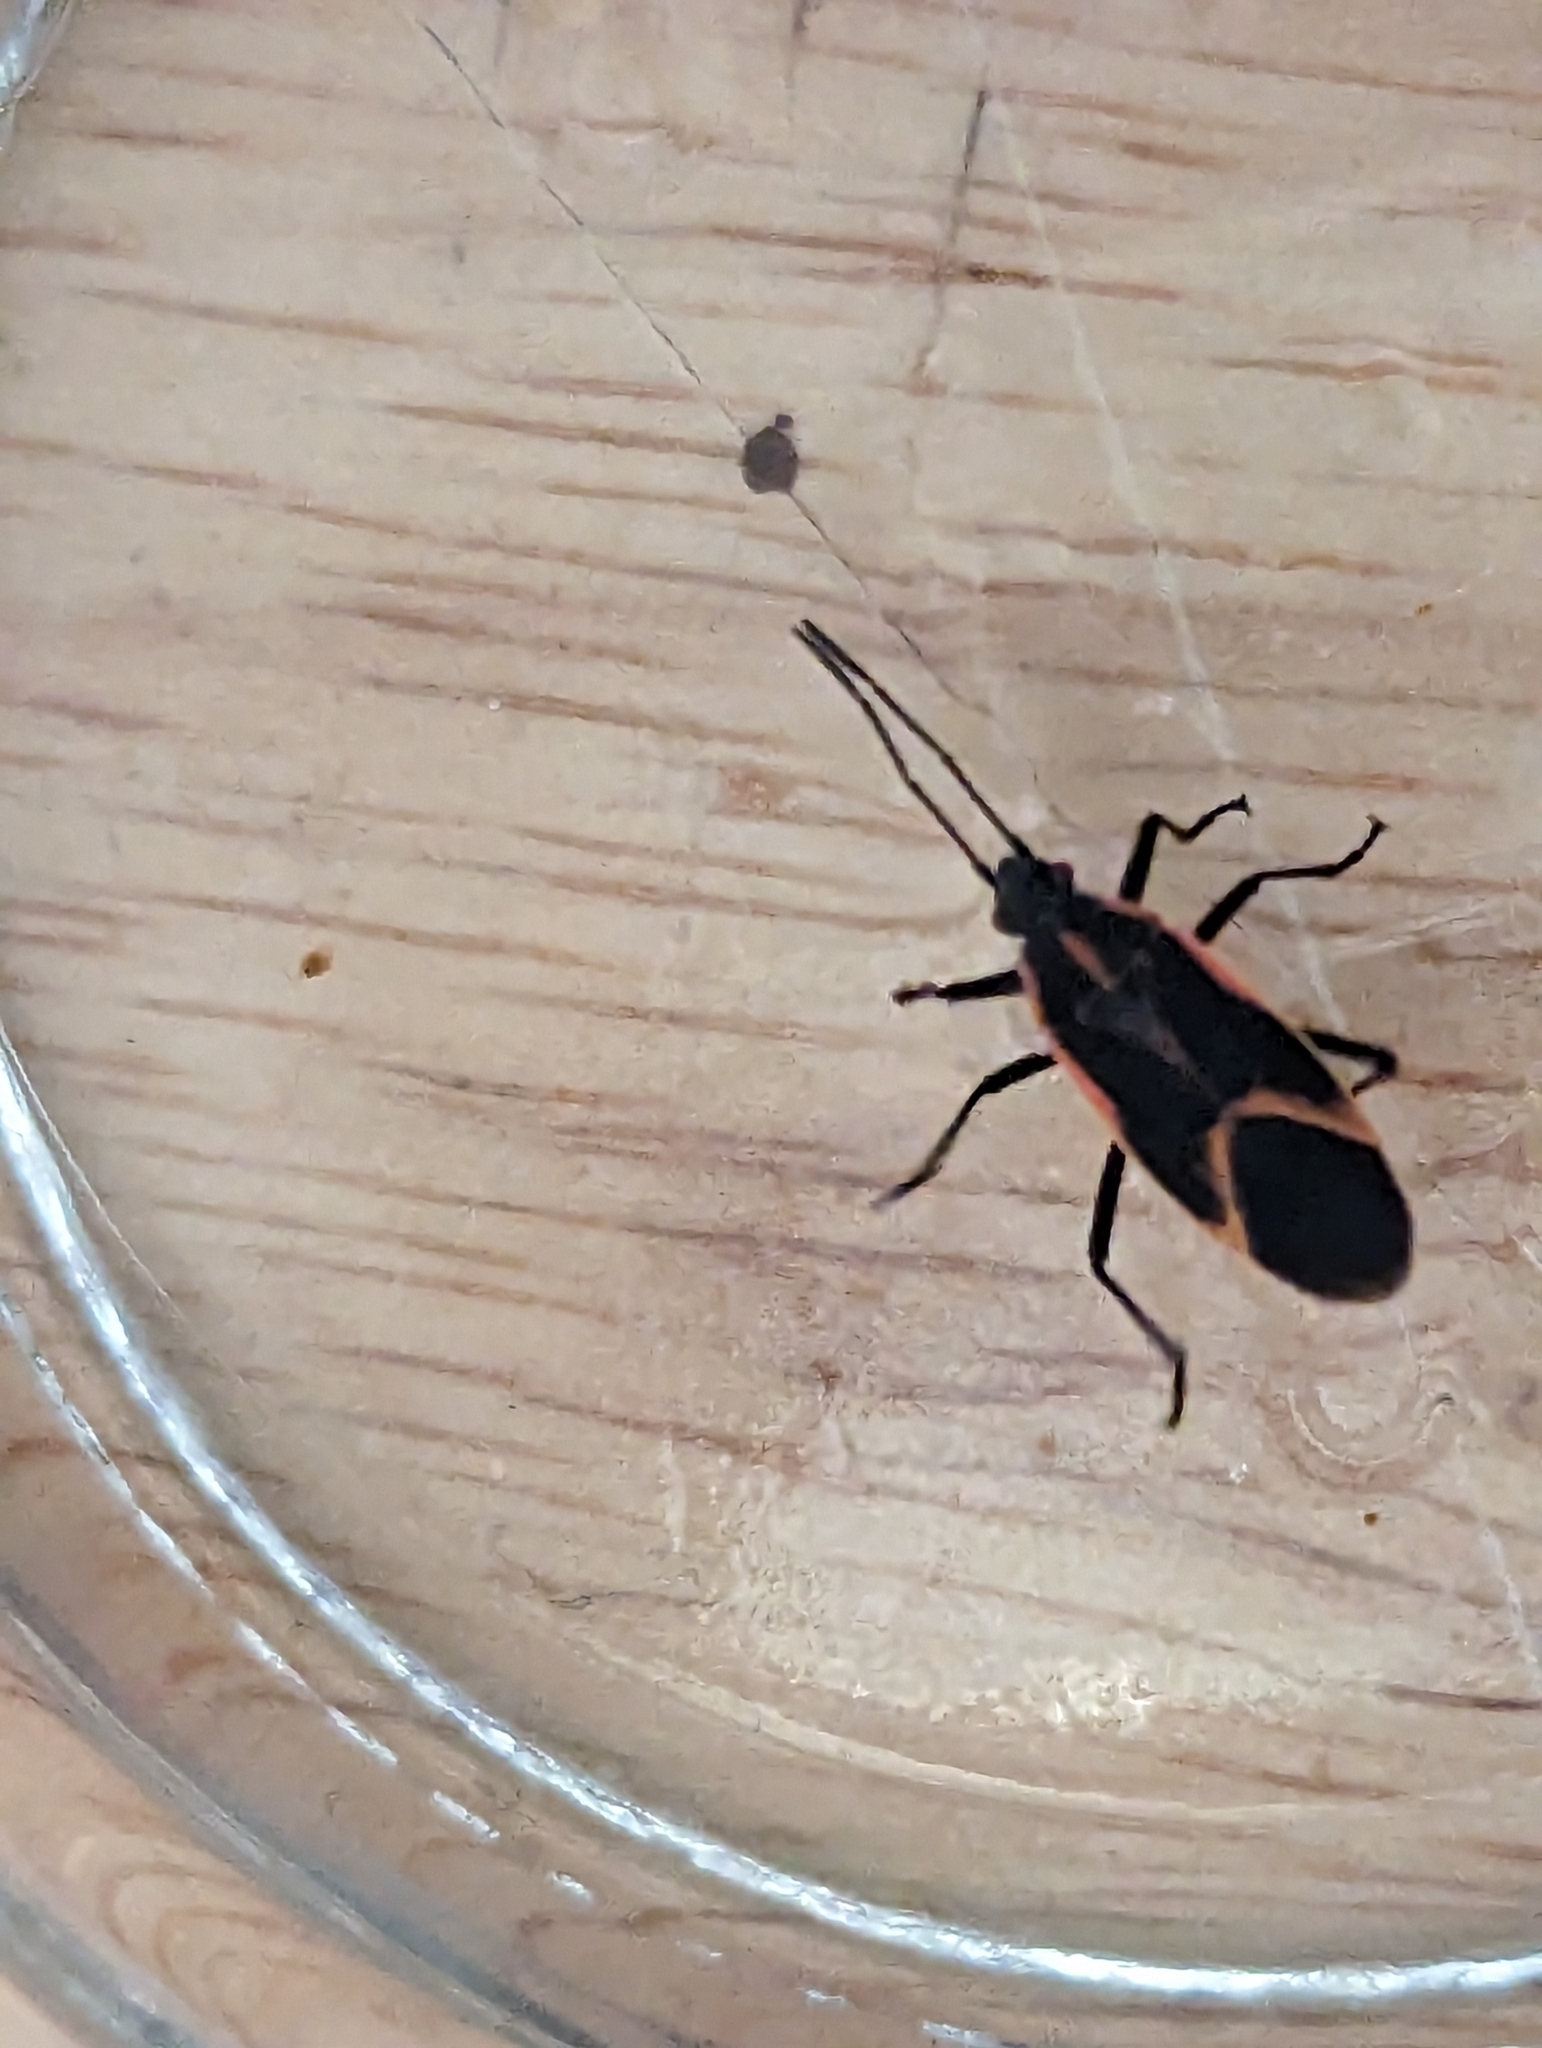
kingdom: Animalia
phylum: Arthropoda
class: Insecta
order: Hemiptera
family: Rhopalidae
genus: Boisea
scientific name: Boisea trivittata
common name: Boxelder bug
